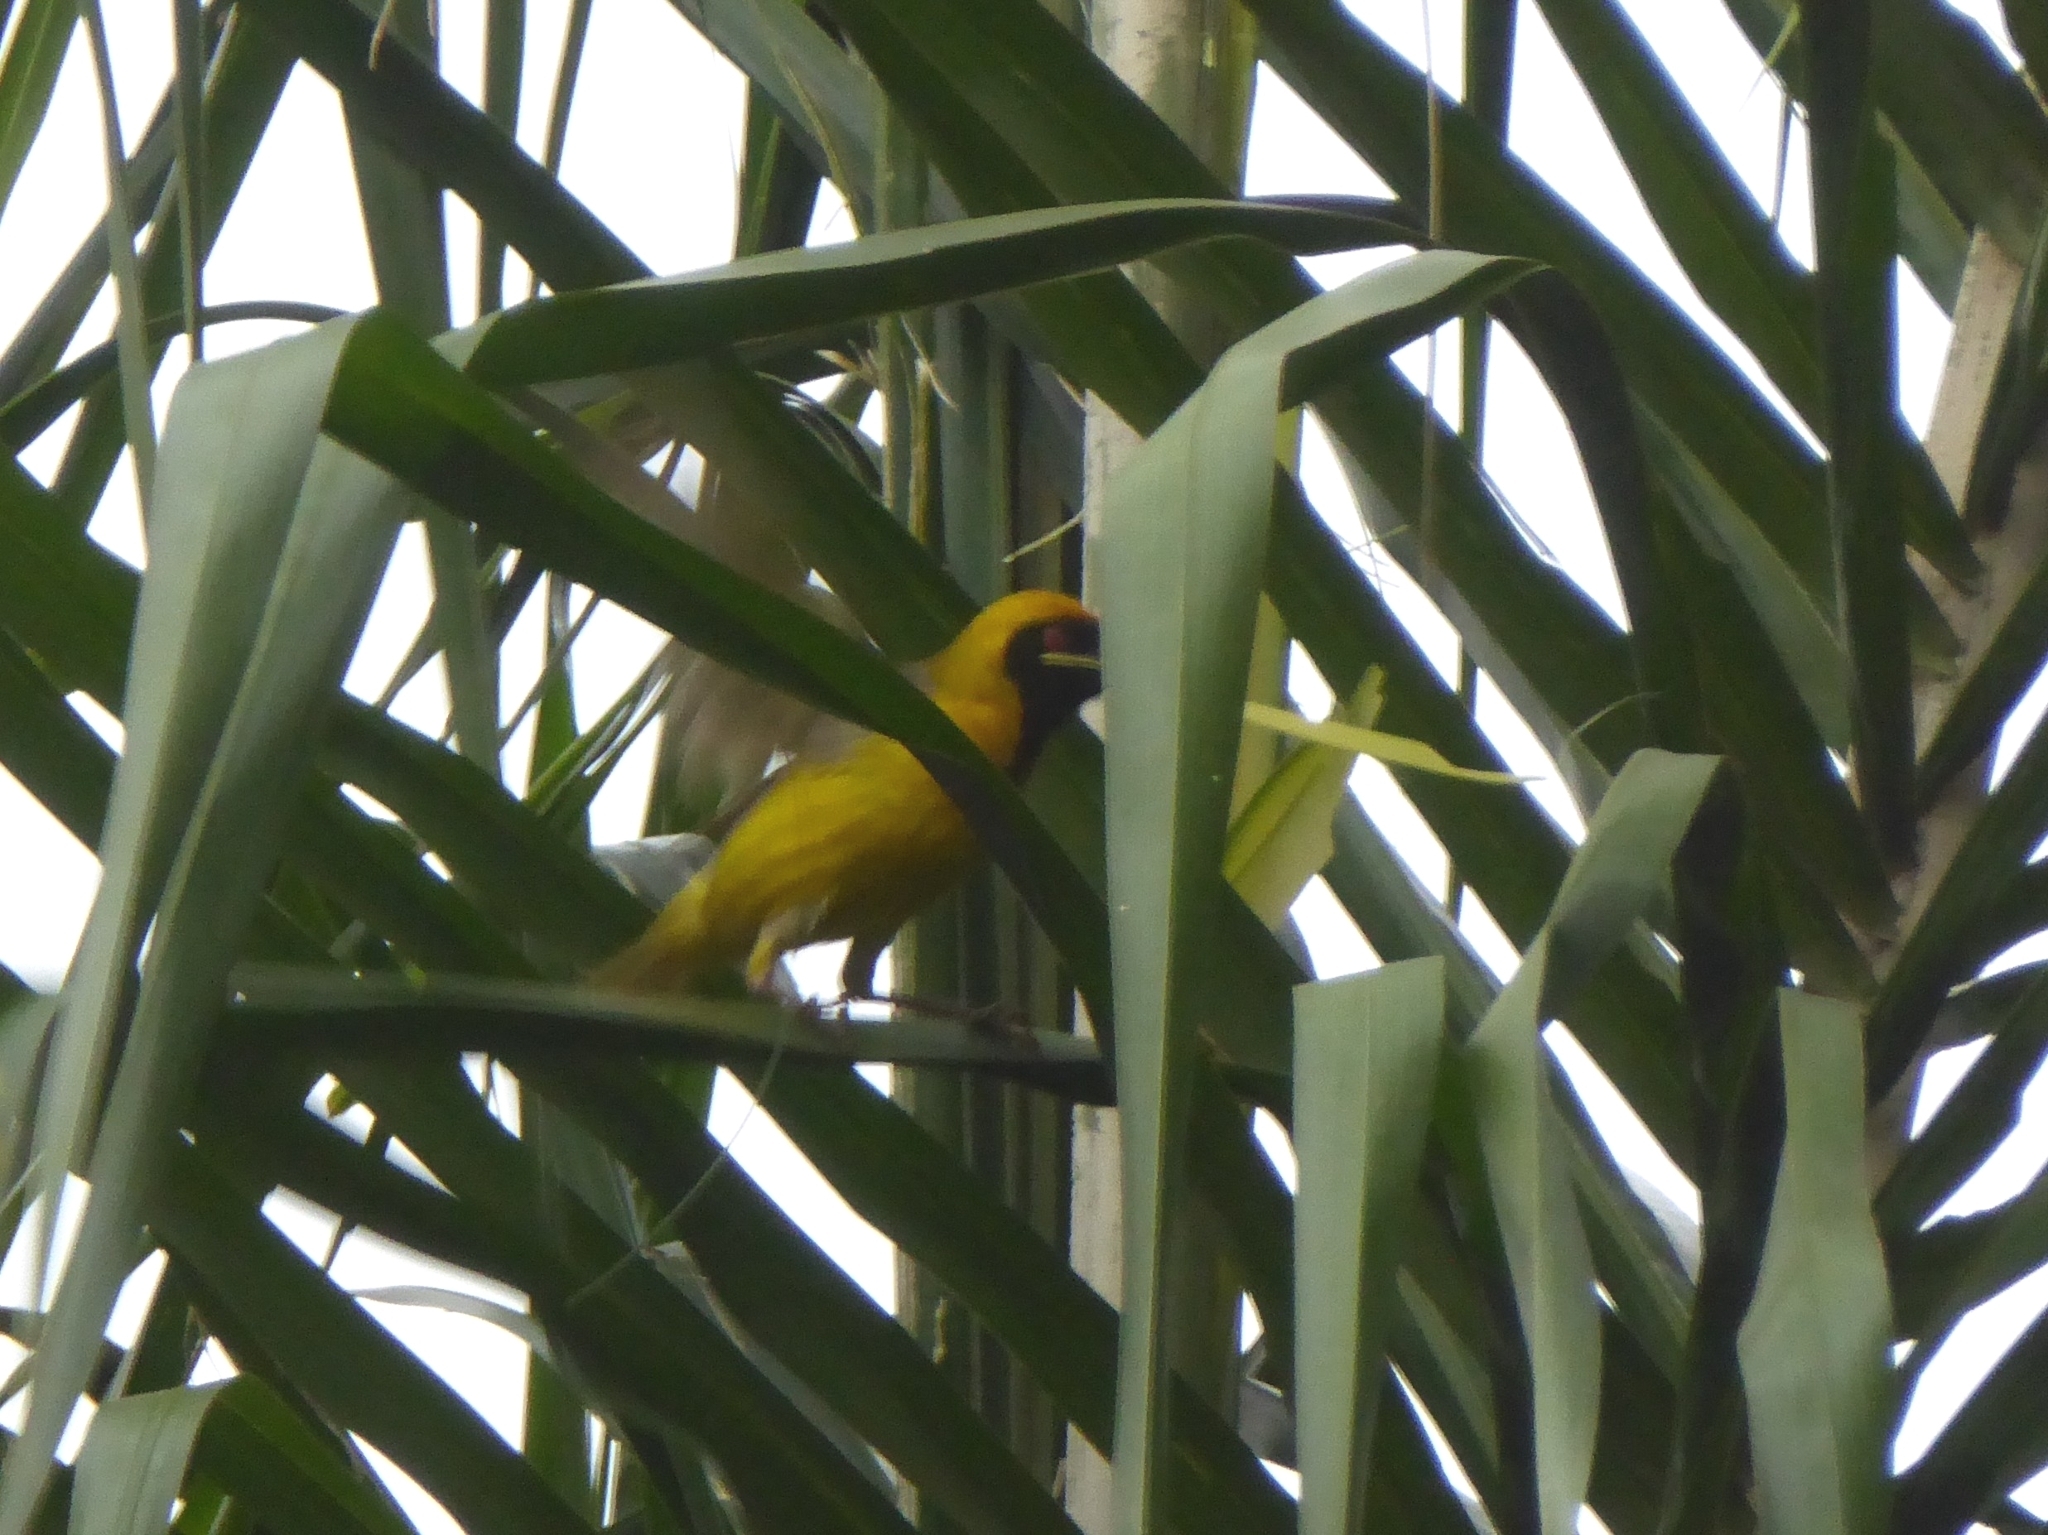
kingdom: Animalia
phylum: Chordata
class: Aves
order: Passeriformes
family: Ploceidae
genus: Ploceus
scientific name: Ploceus velatus
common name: Southern masked weaver
